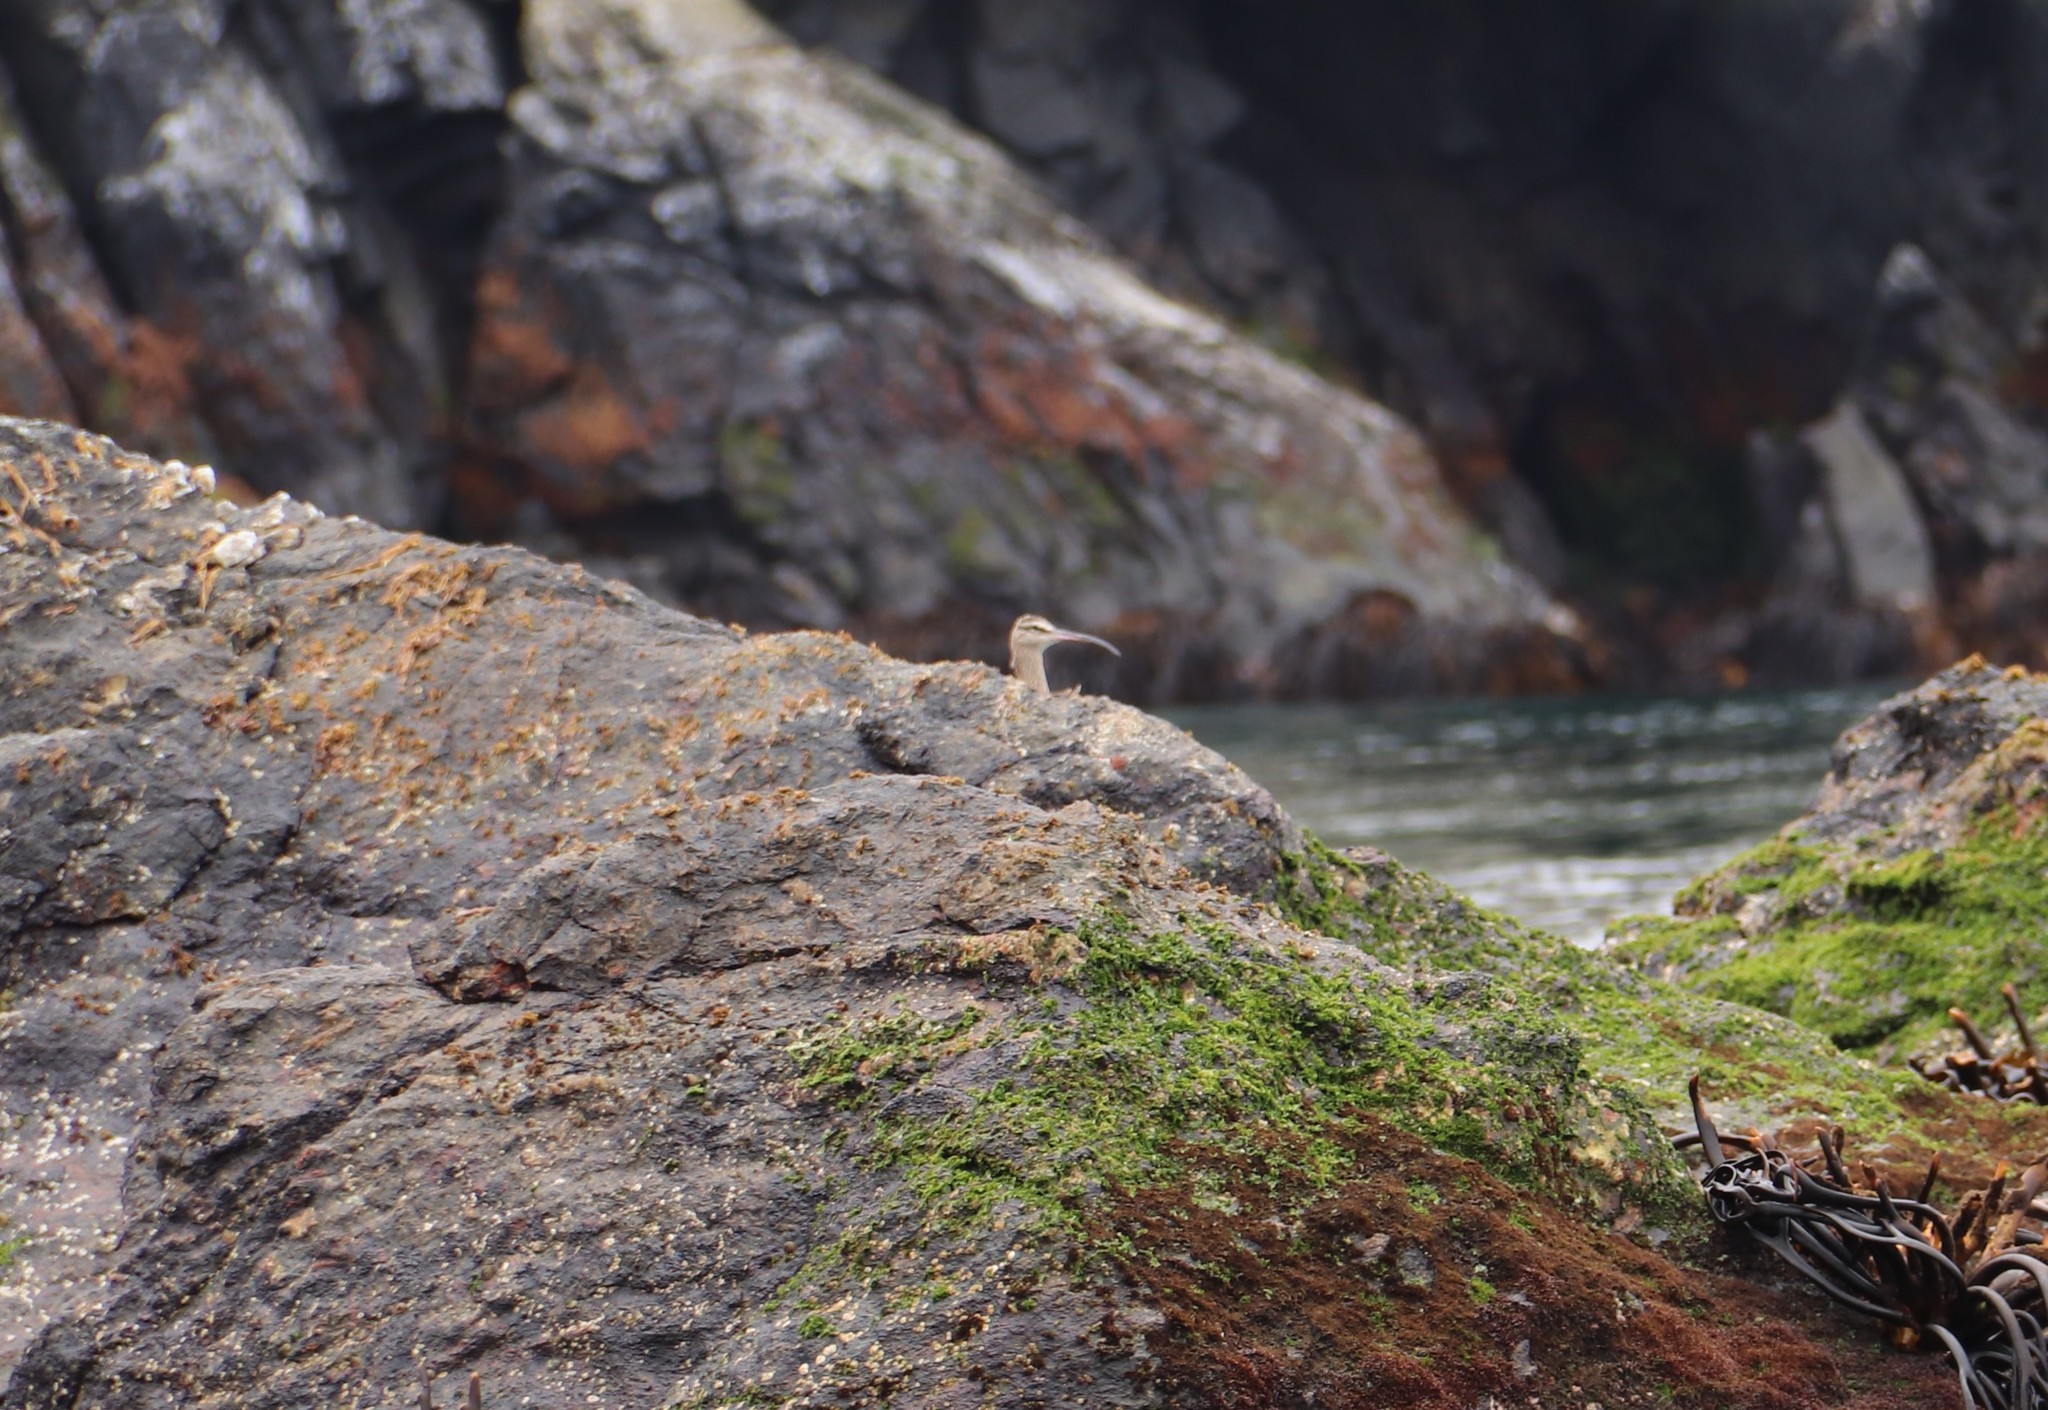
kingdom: Animalia
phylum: Chordata
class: Aves
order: Charadriiformes
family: Scolopacidae
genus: Numenius
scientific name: Numenius hudsonicus
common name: Hudsonian whimbrel
